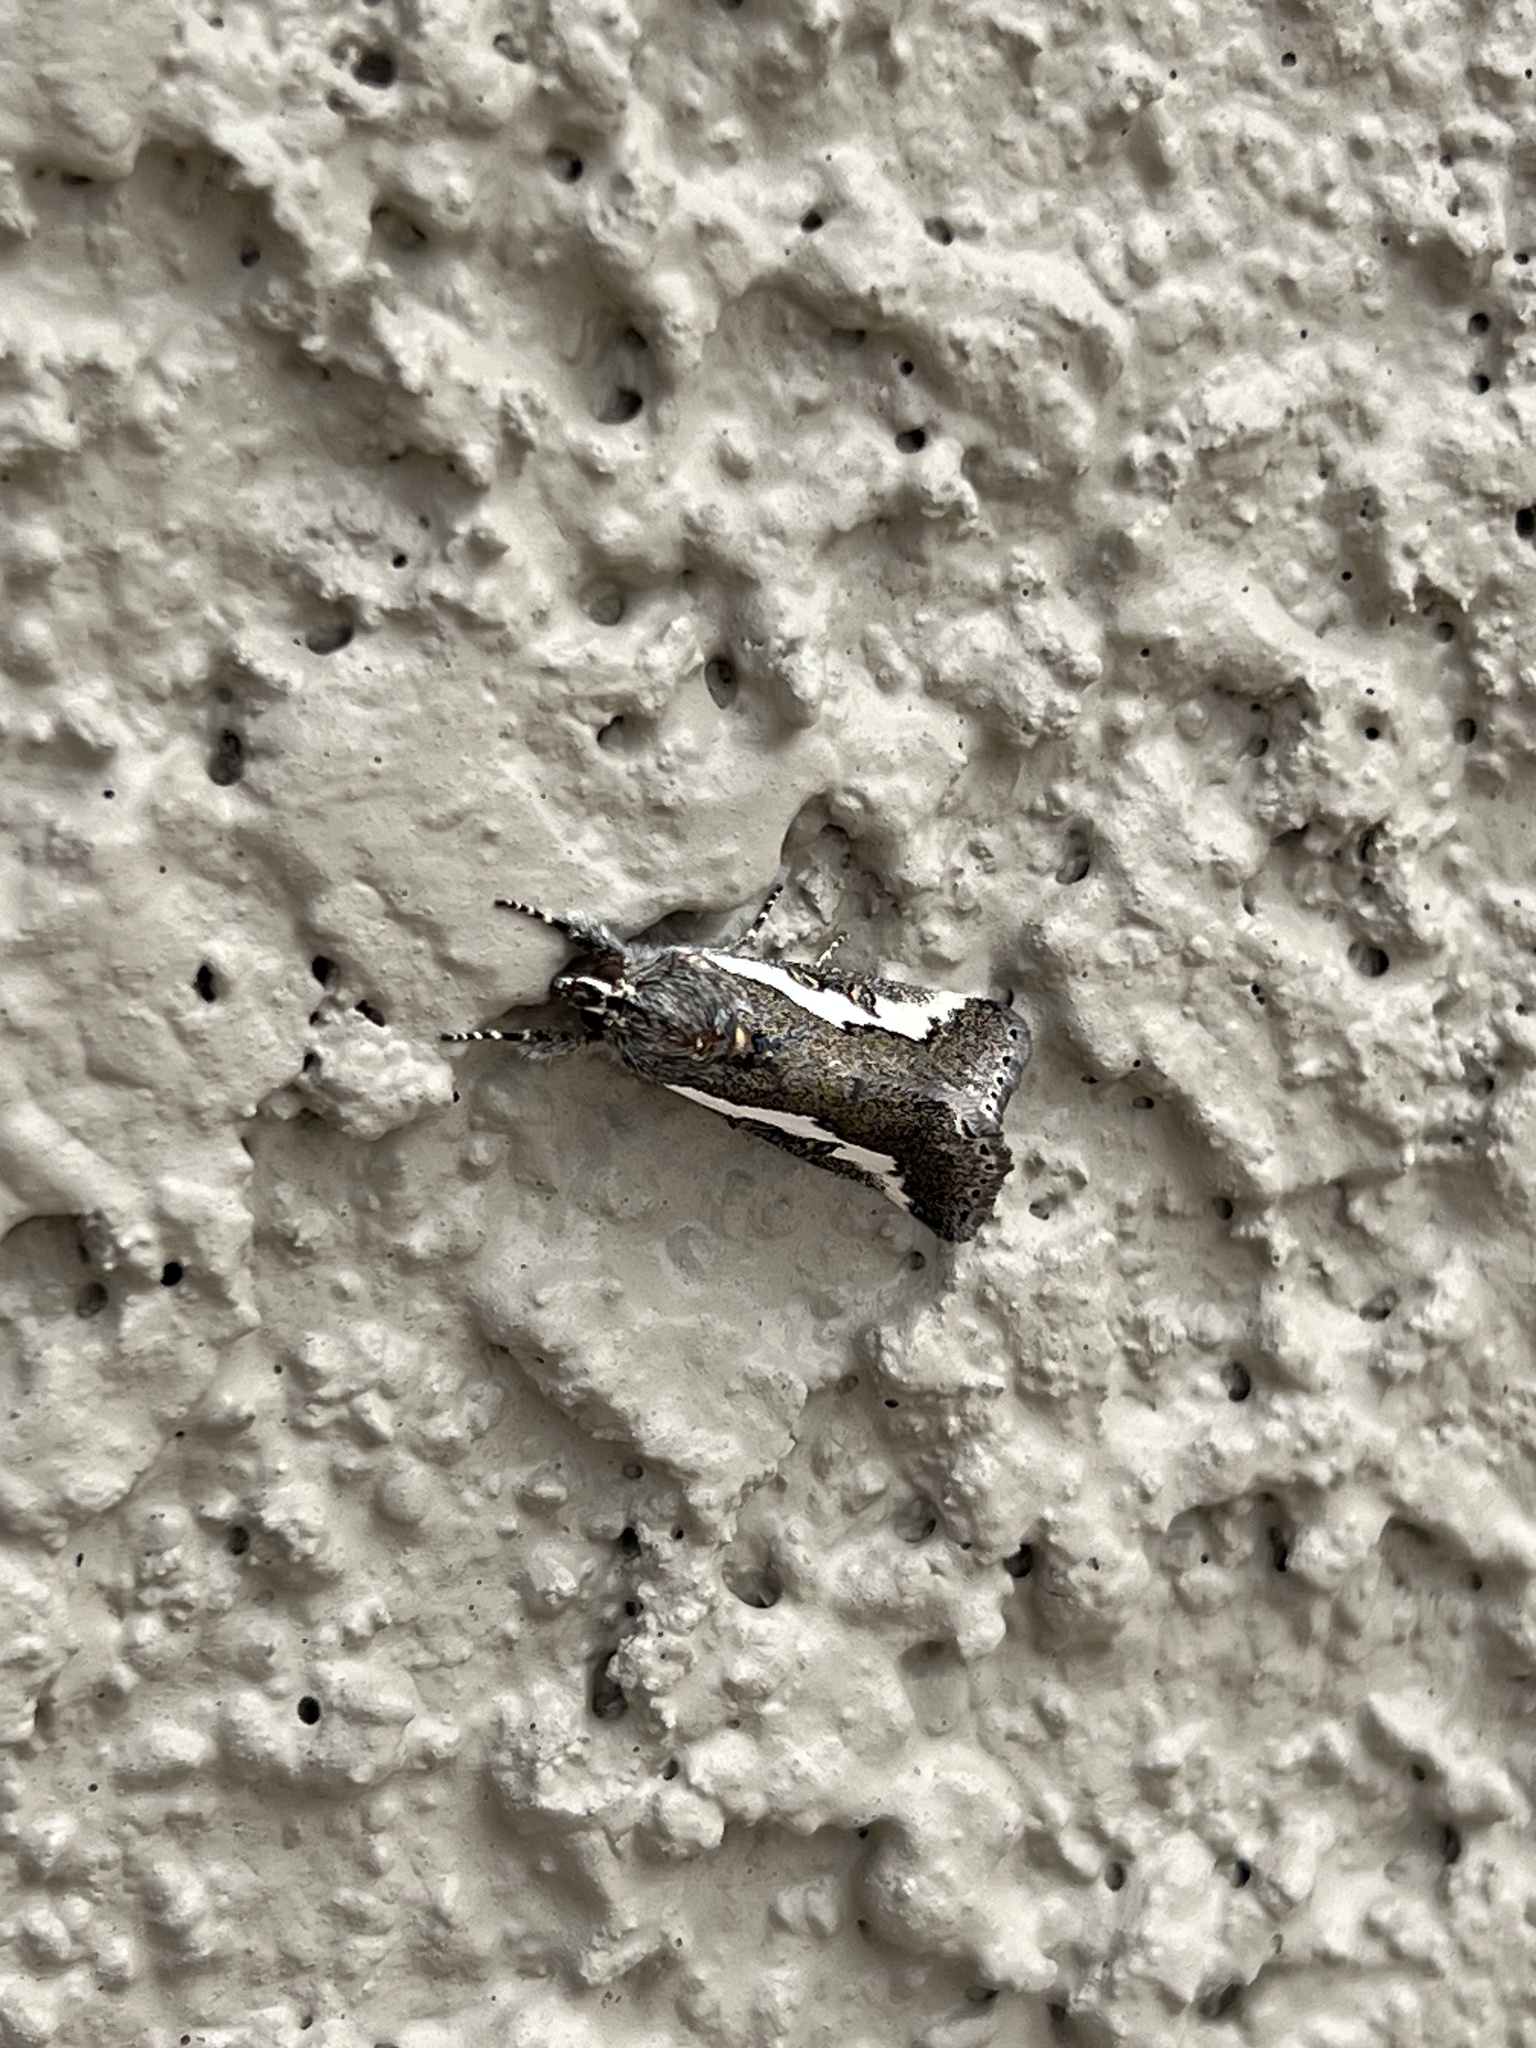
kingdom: Animalia
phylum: Arthropoda
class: Insecta
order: Lepidoptera
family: Noctuidae
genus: Euscirrhopterus
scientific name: Euscirrhopterus gloveri
